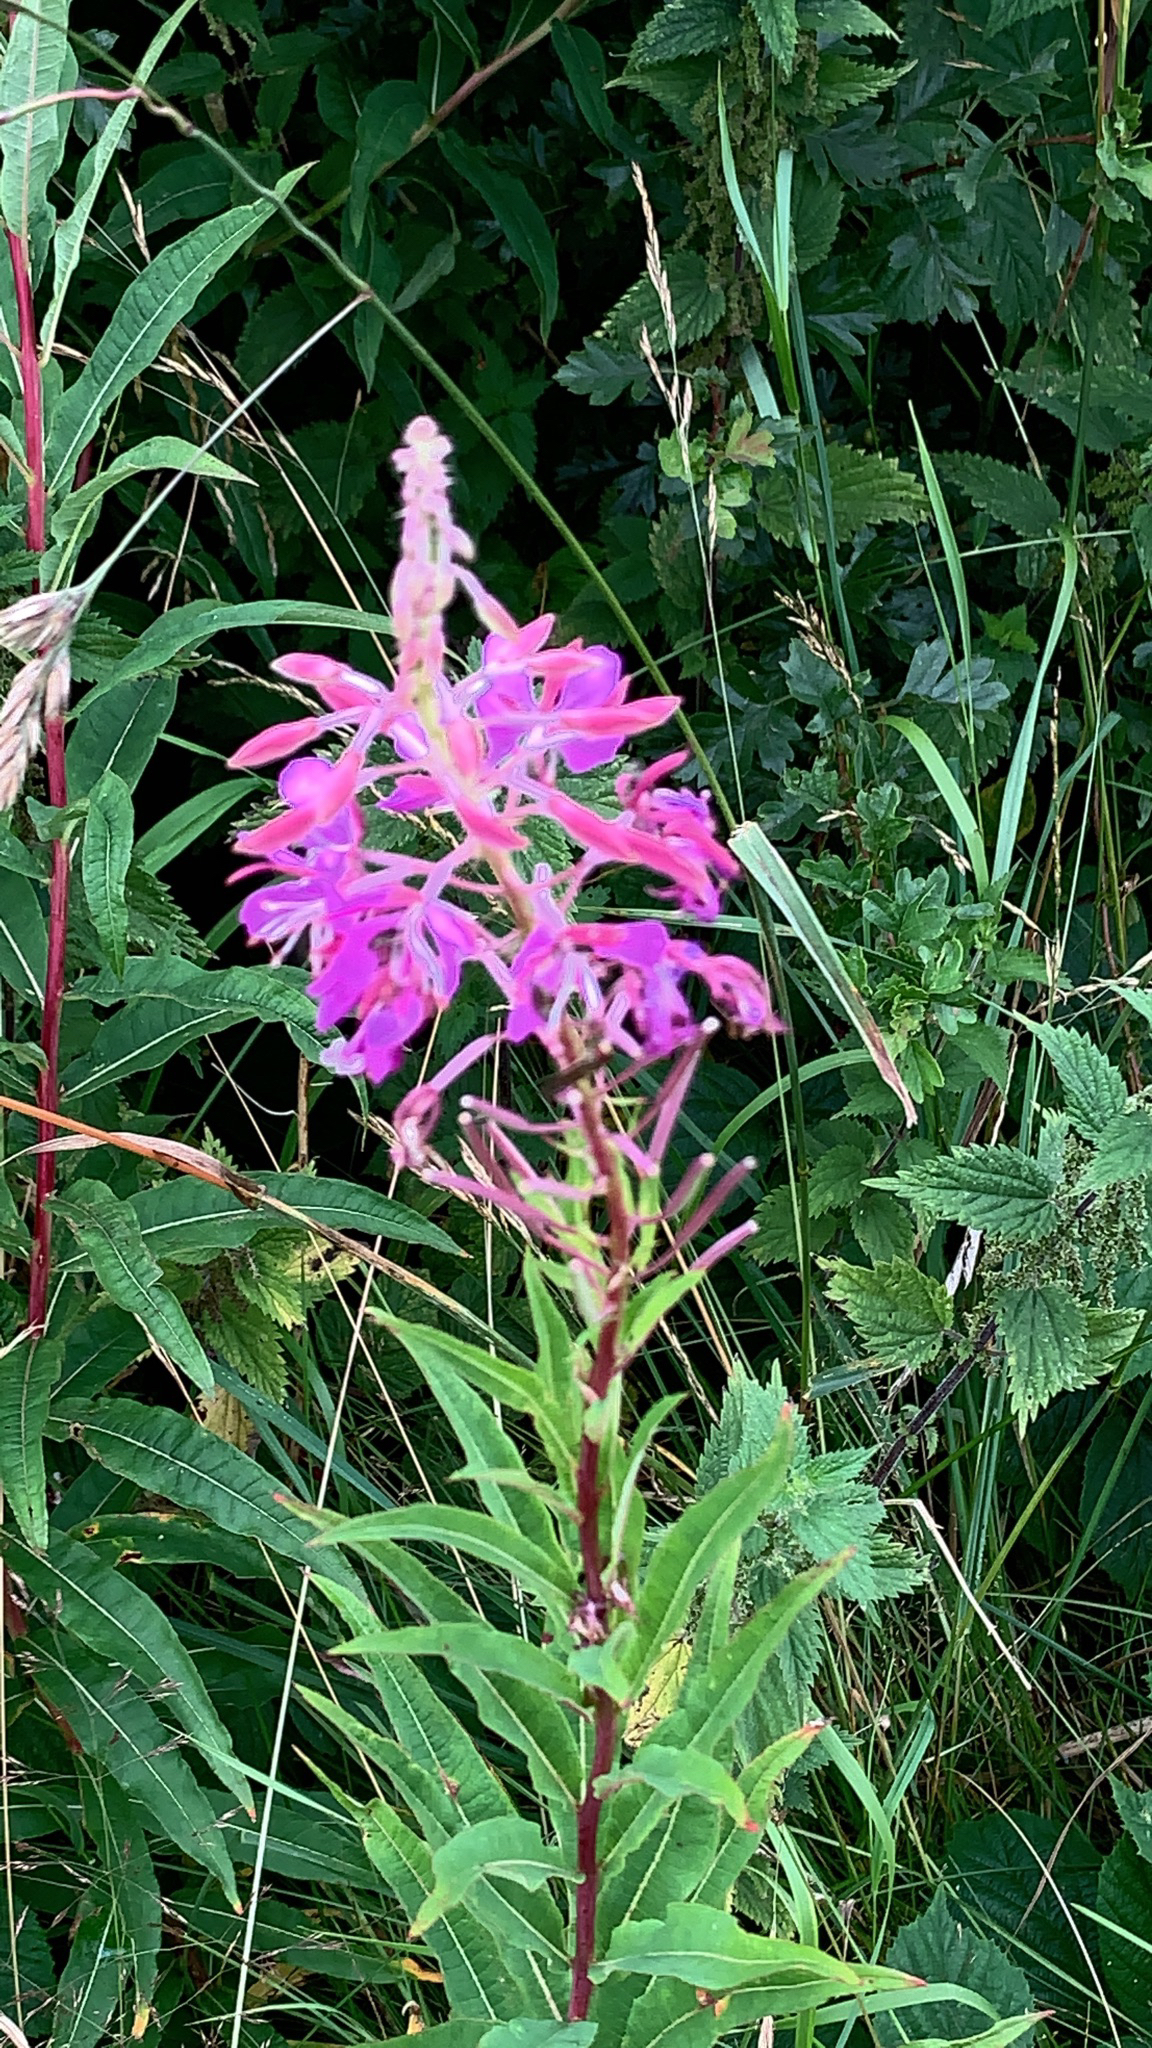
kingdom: Plantae
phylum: Tracheophyta
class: Magnoliopsida
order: Myrtales
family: Onagraceae
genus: Chamaenerion
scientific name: Chamaenerion angustifolium
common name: Fireweed
